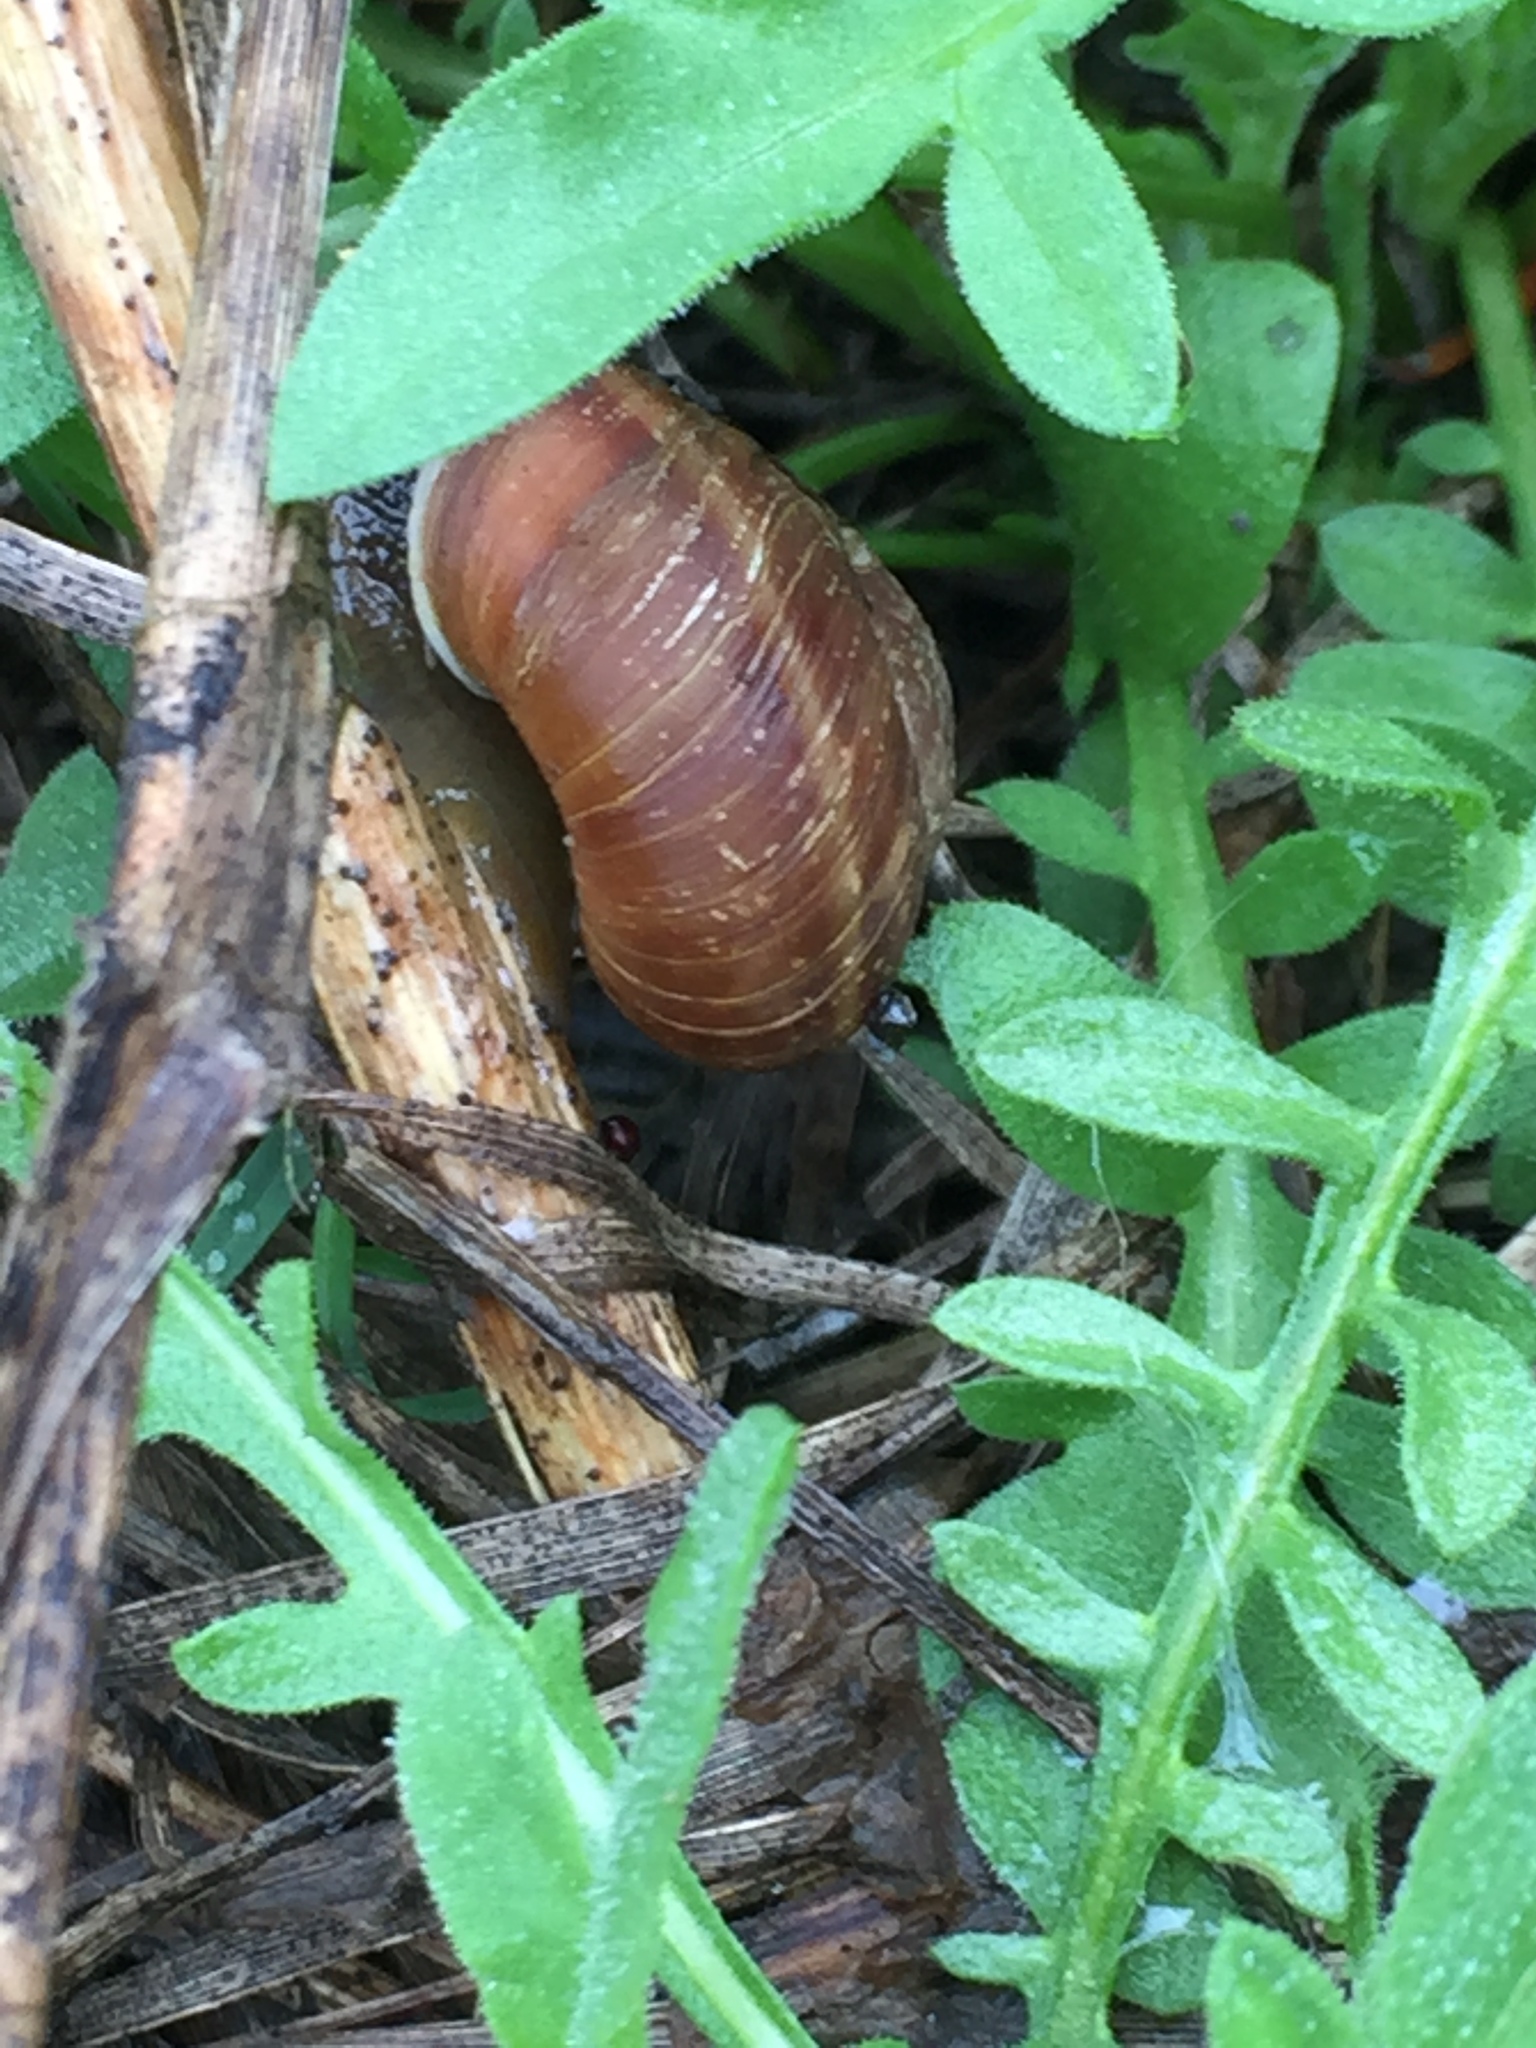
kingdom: Animalia
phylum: Mollusca
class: Gastropoda
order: Stylommatophora
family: Discidae
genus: Anguispira
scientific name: Anguispira kochi
